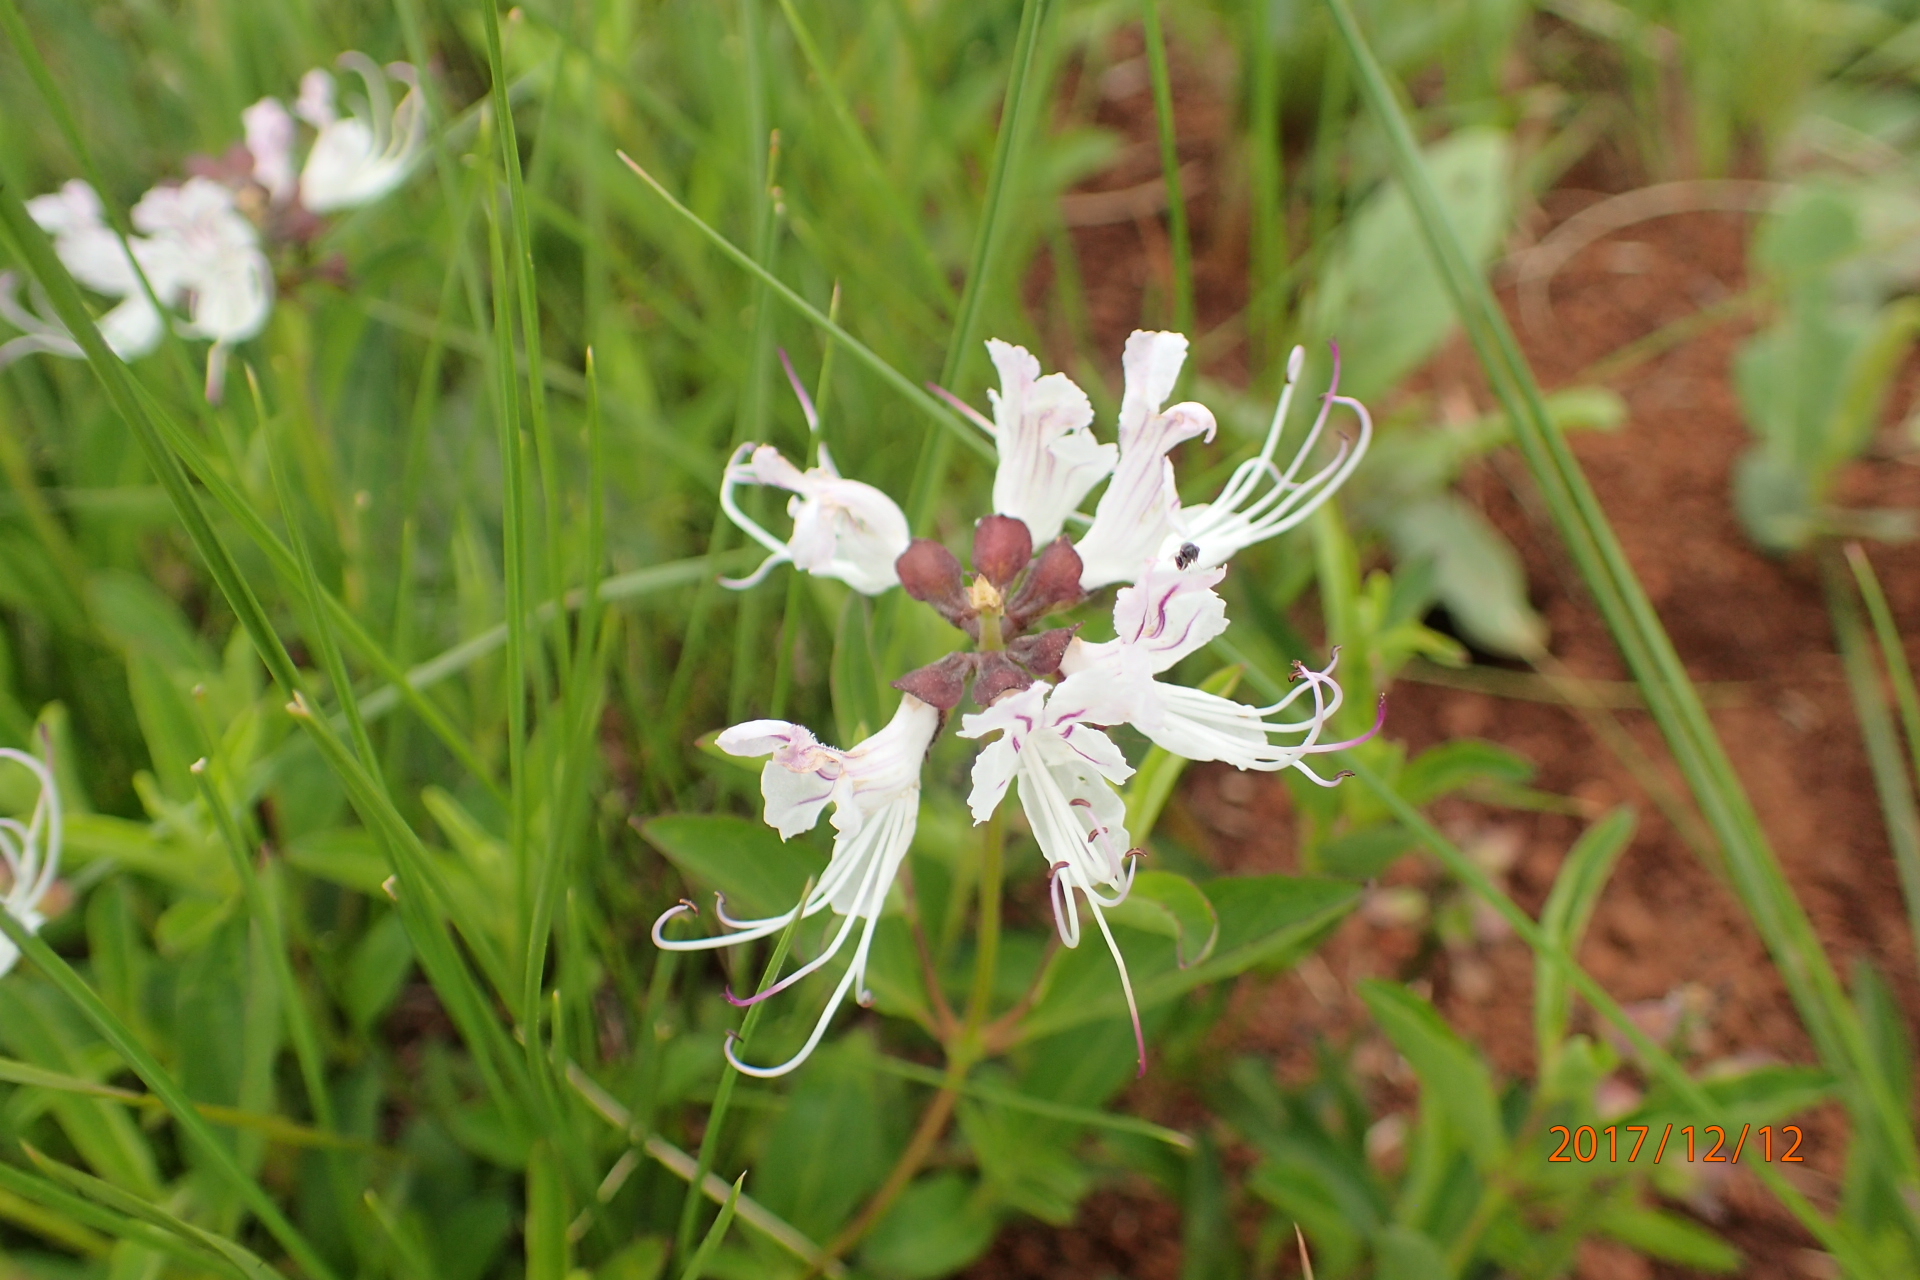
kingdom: Plantae
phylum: Tracheophyta
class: Magnoliopsida
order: Lamiales
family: Lamiaceae
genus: Ocimum
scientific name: Ocimum obovatum
